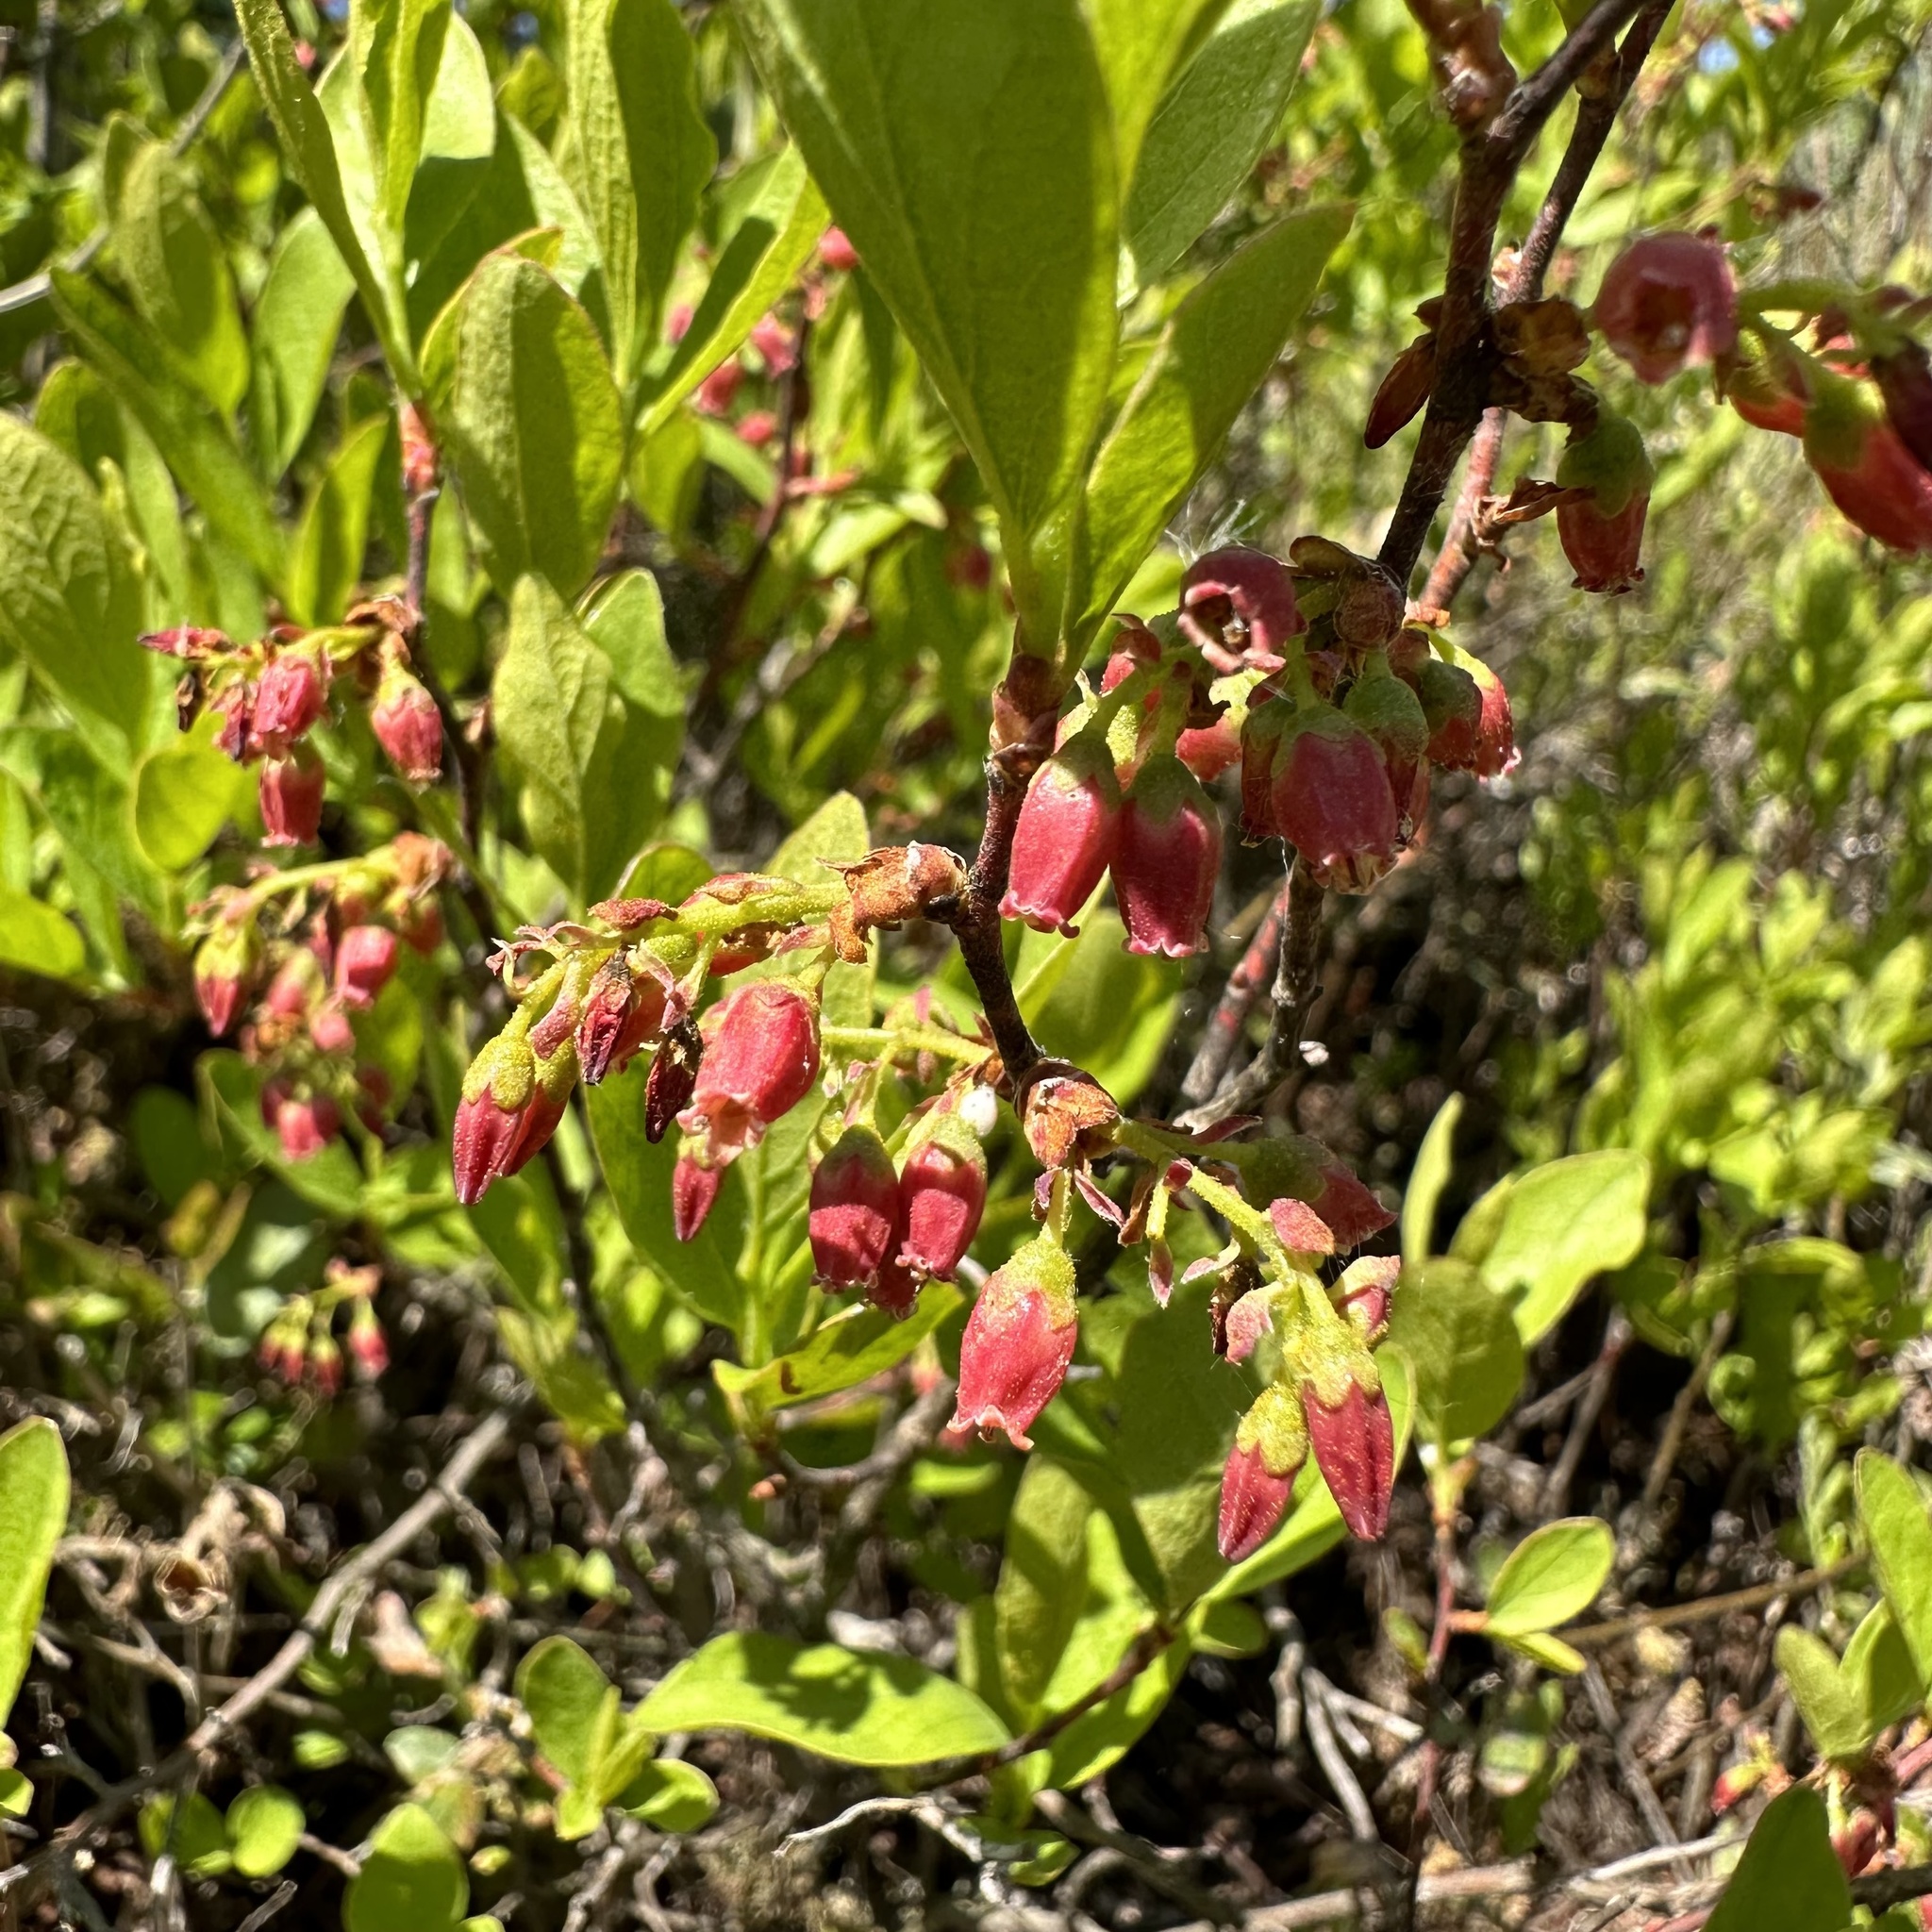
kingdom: Plantae
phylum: Tracheophyta
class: Magnoliopsida
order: Ericales
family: Ericaceae
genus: Gaylussacia
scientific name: Gaylussacia baccata
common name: Black huckleberry
